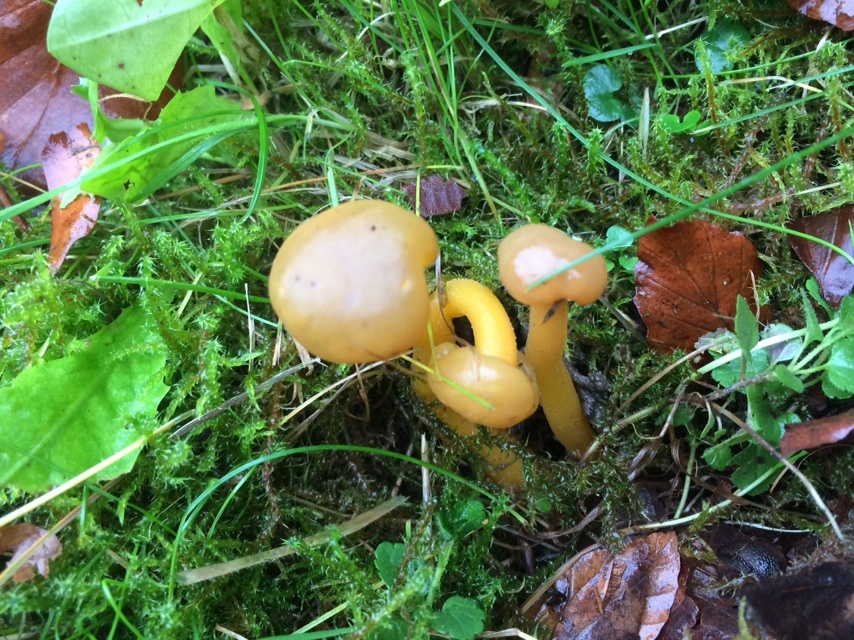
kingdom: Fungi
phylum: Ascomycota
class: Leotiomycetes
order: Leotiales
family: Leotiaceae
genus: Leotia
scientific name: Leotia lubrica
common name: Jellybaby
